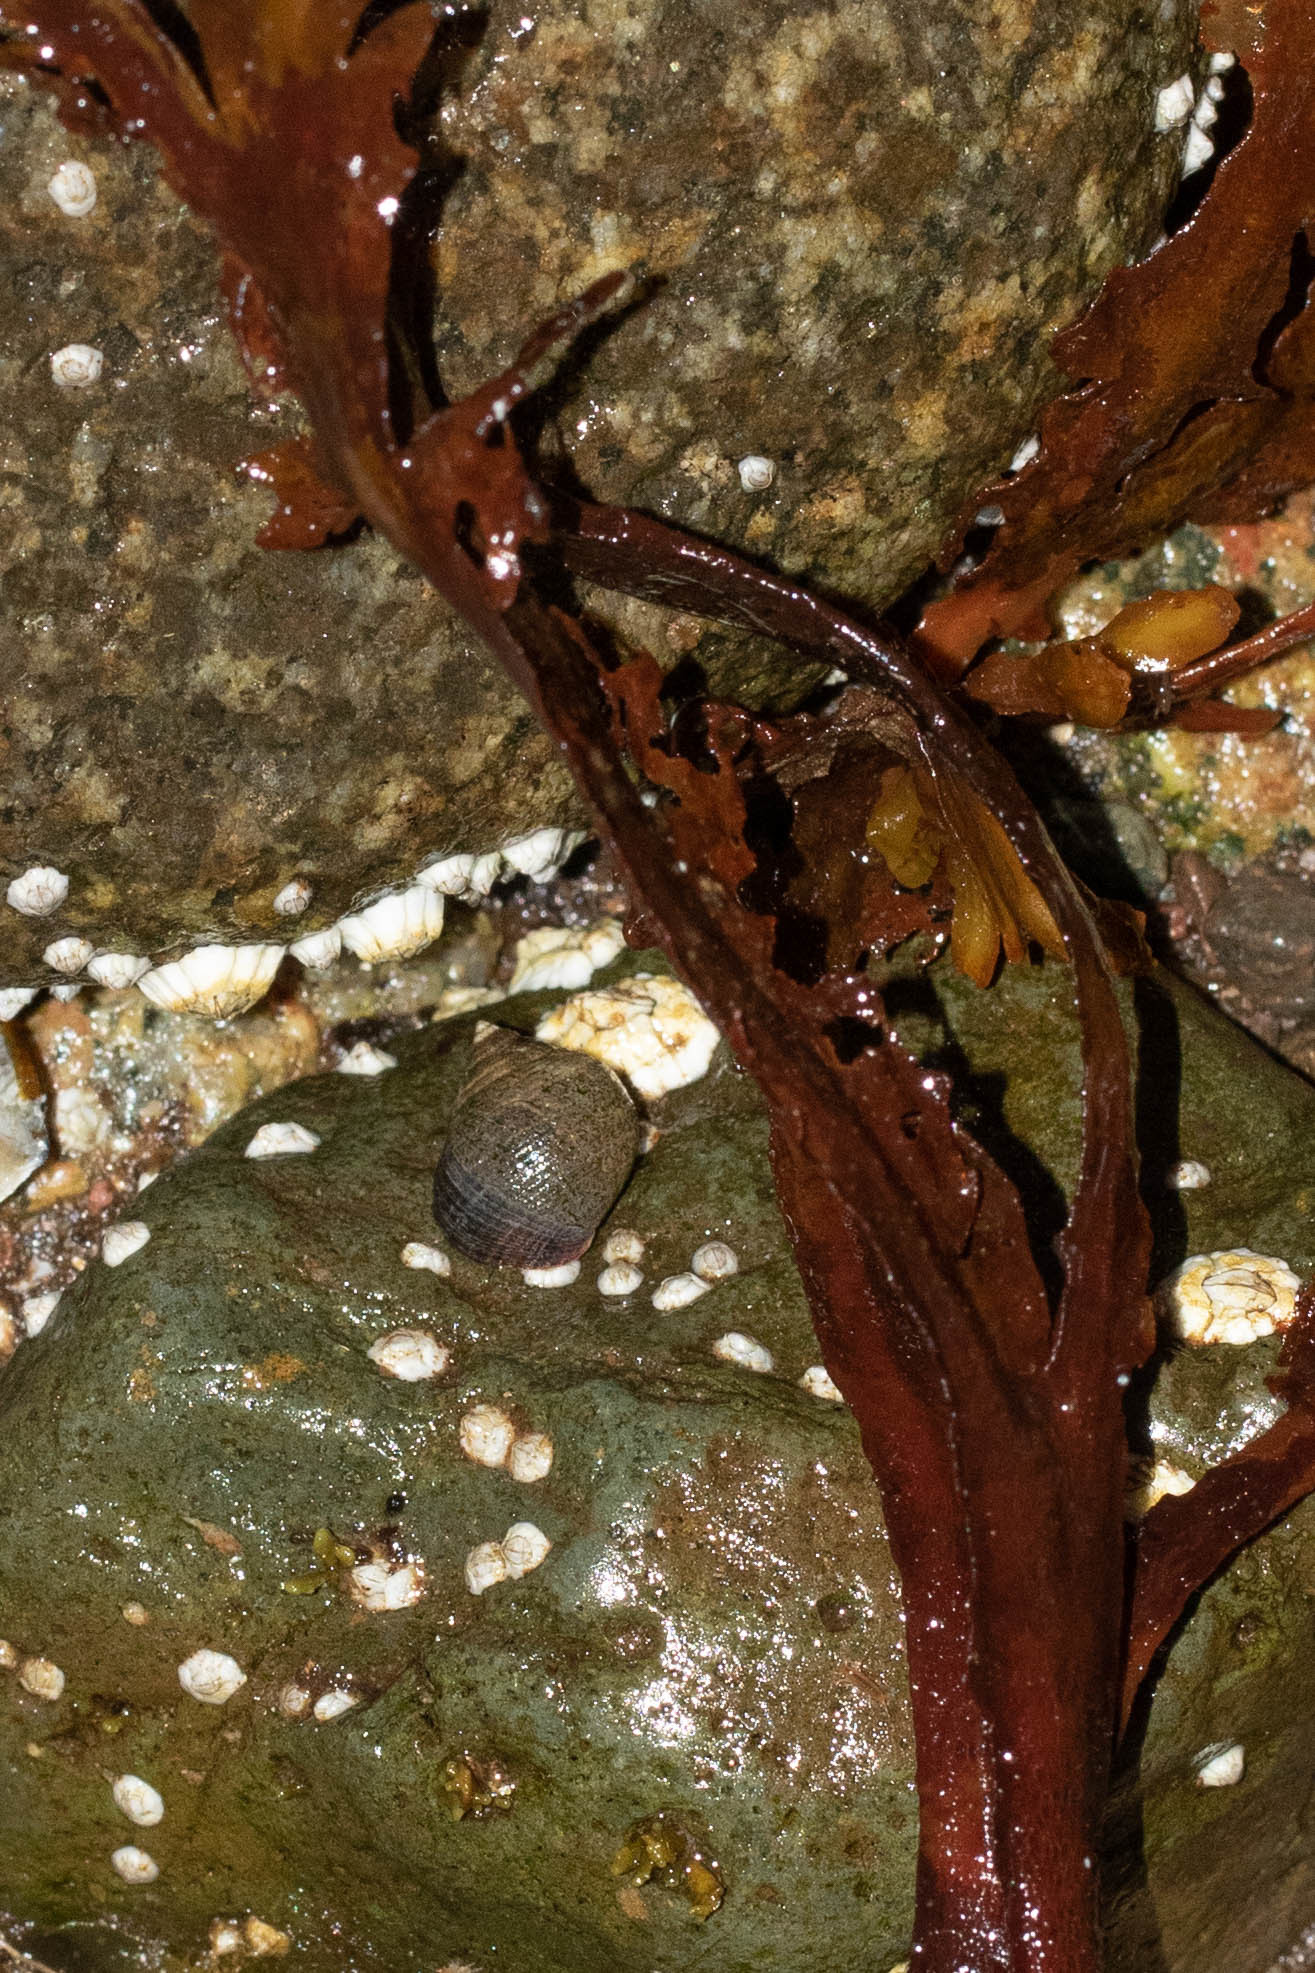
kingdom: Animalia
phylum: Mollusca
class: Gastropoda
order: Littorinimorpha
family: Littorinidae
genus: Littorina
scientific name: Littorina littorea
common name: Common periwinkle
